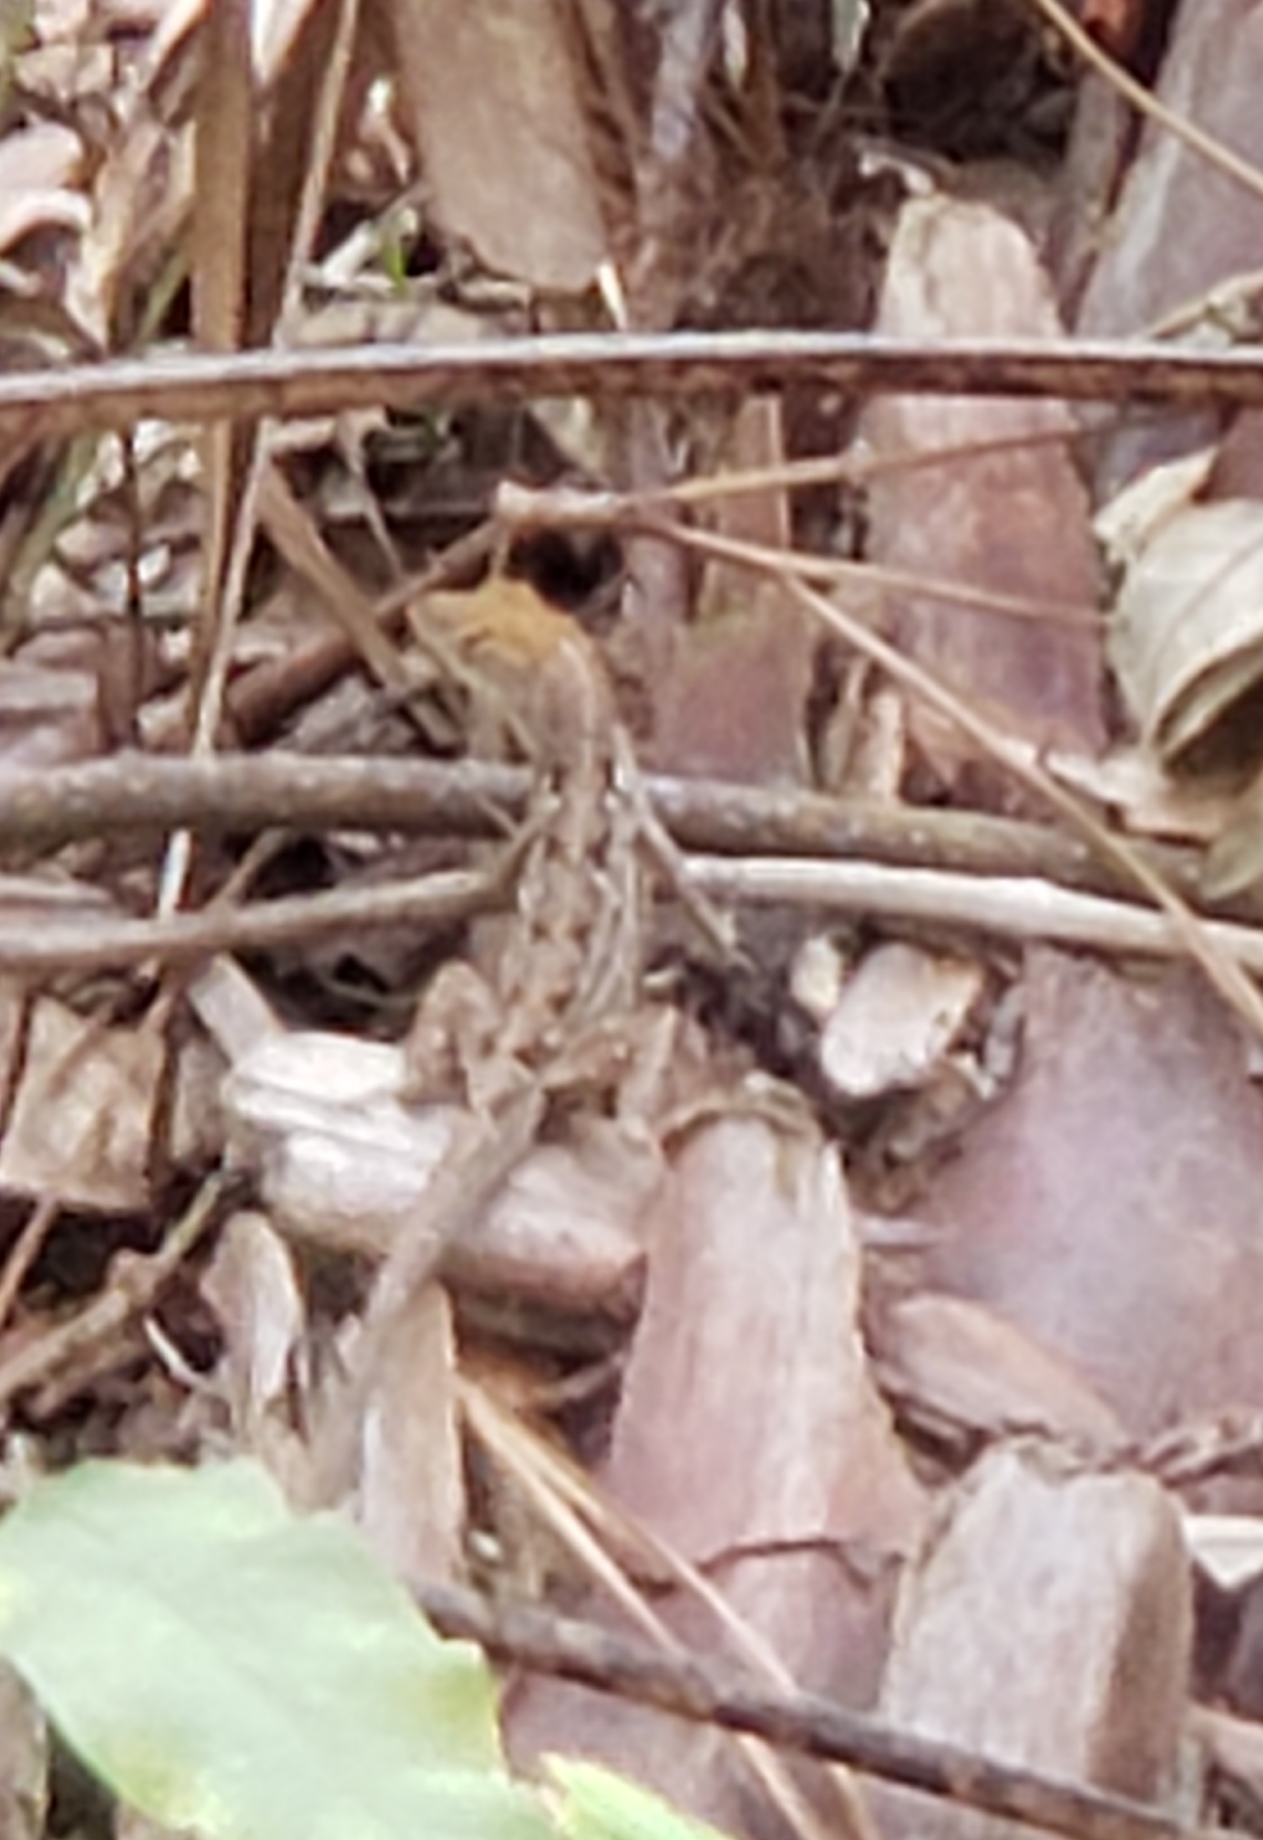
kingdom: Animalia
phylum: Chordata
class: Squamata
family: Dactyloidae
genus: Anolis
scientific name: Anolis sagrei
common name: Brown anole
